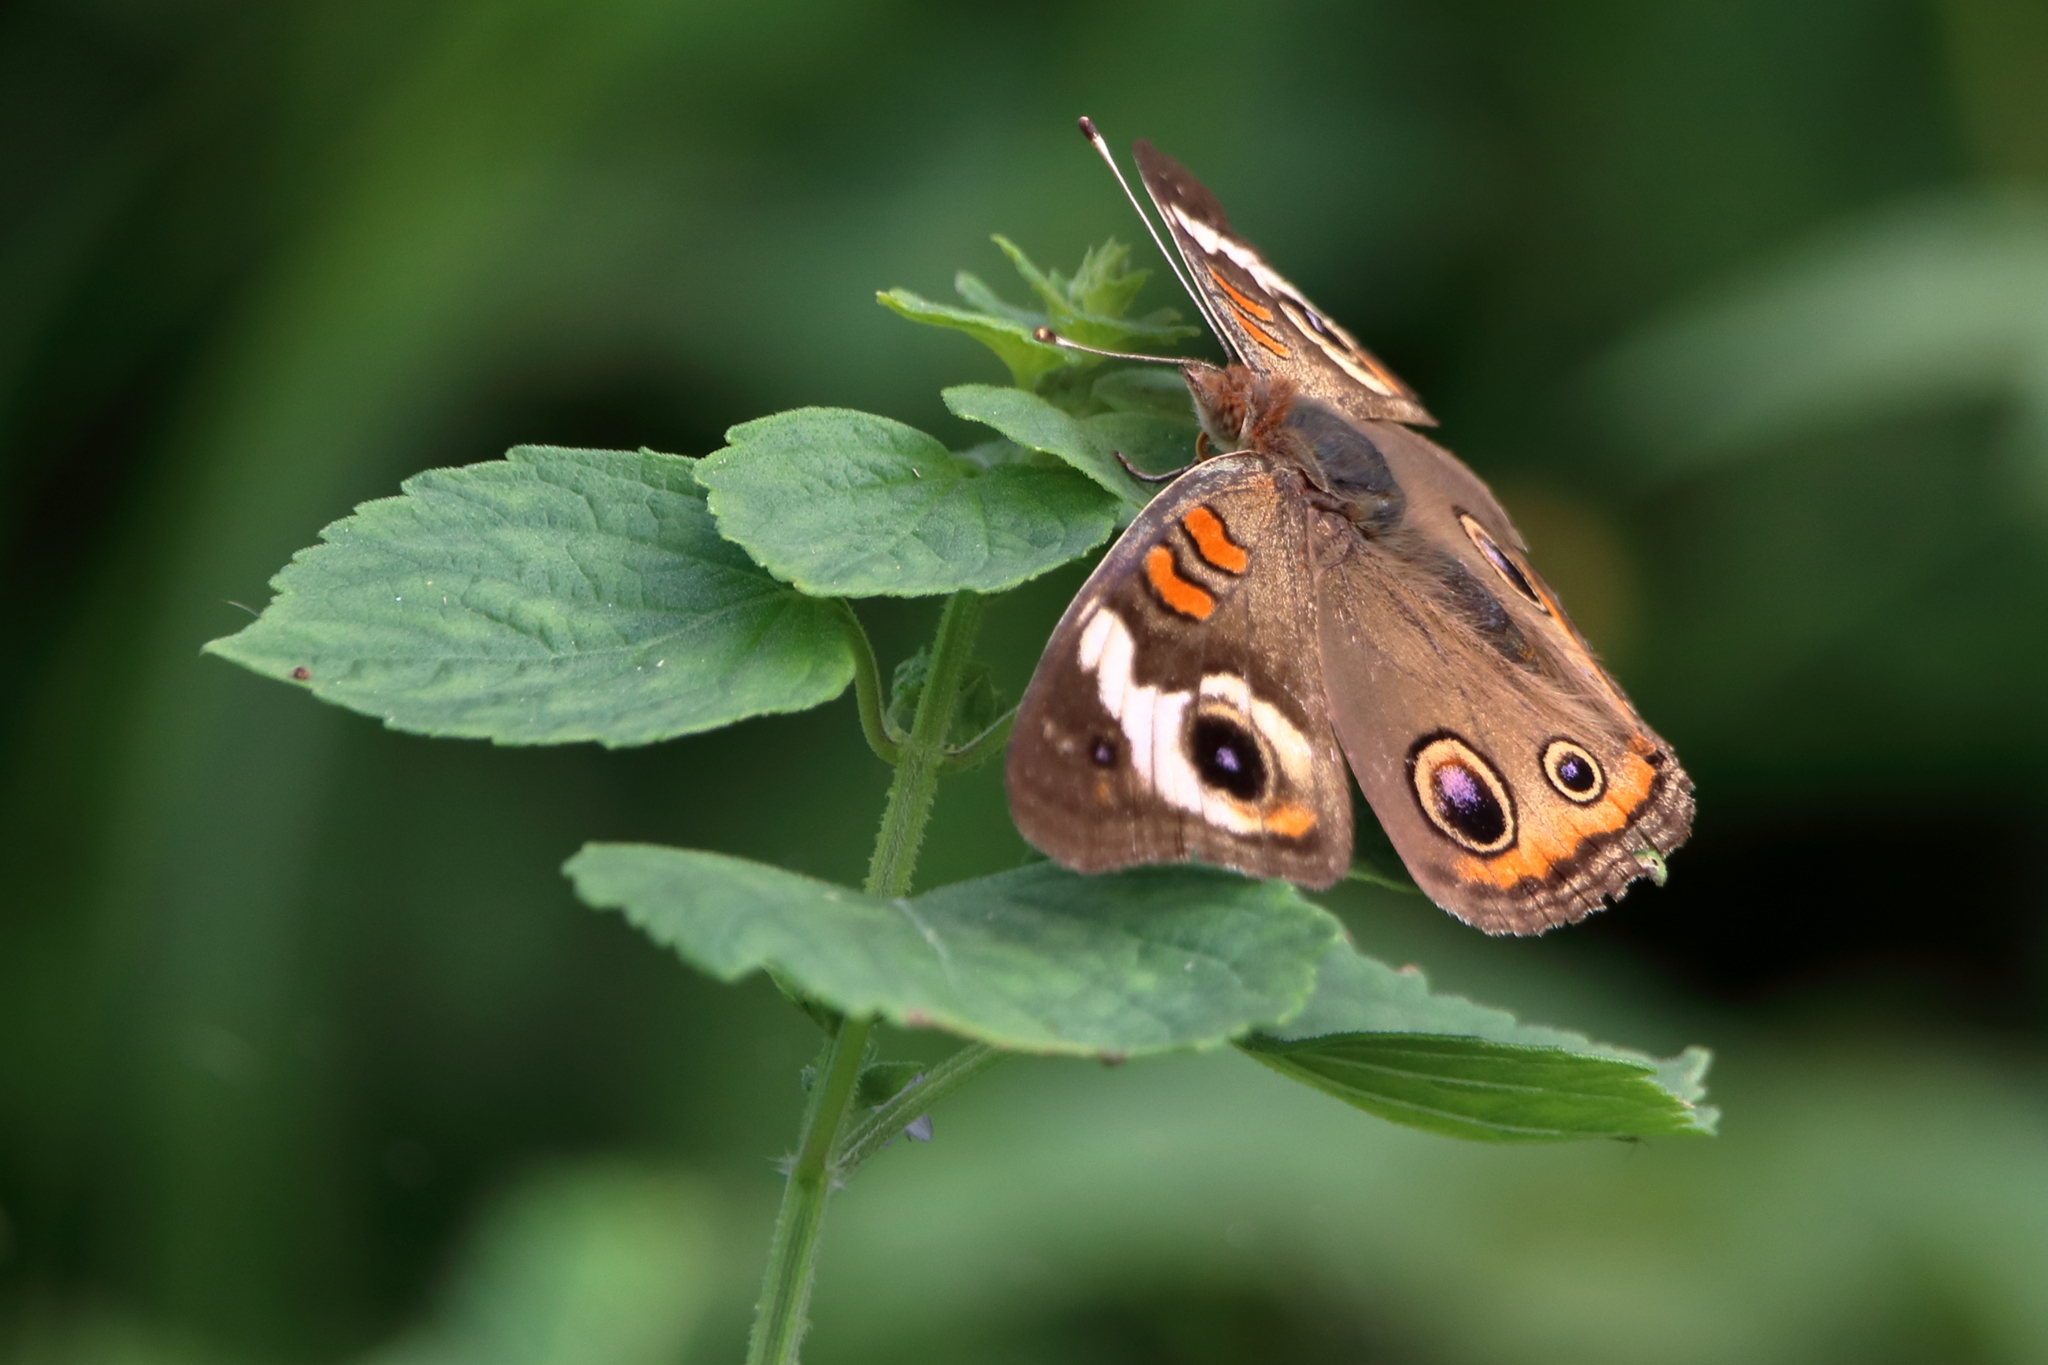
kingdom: Animalia
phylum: Arthropoda
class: Insecta
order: Lepidoptera
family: Nymphalidae
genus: Junonia
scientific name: Junonia coenia
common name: Common buckeye
